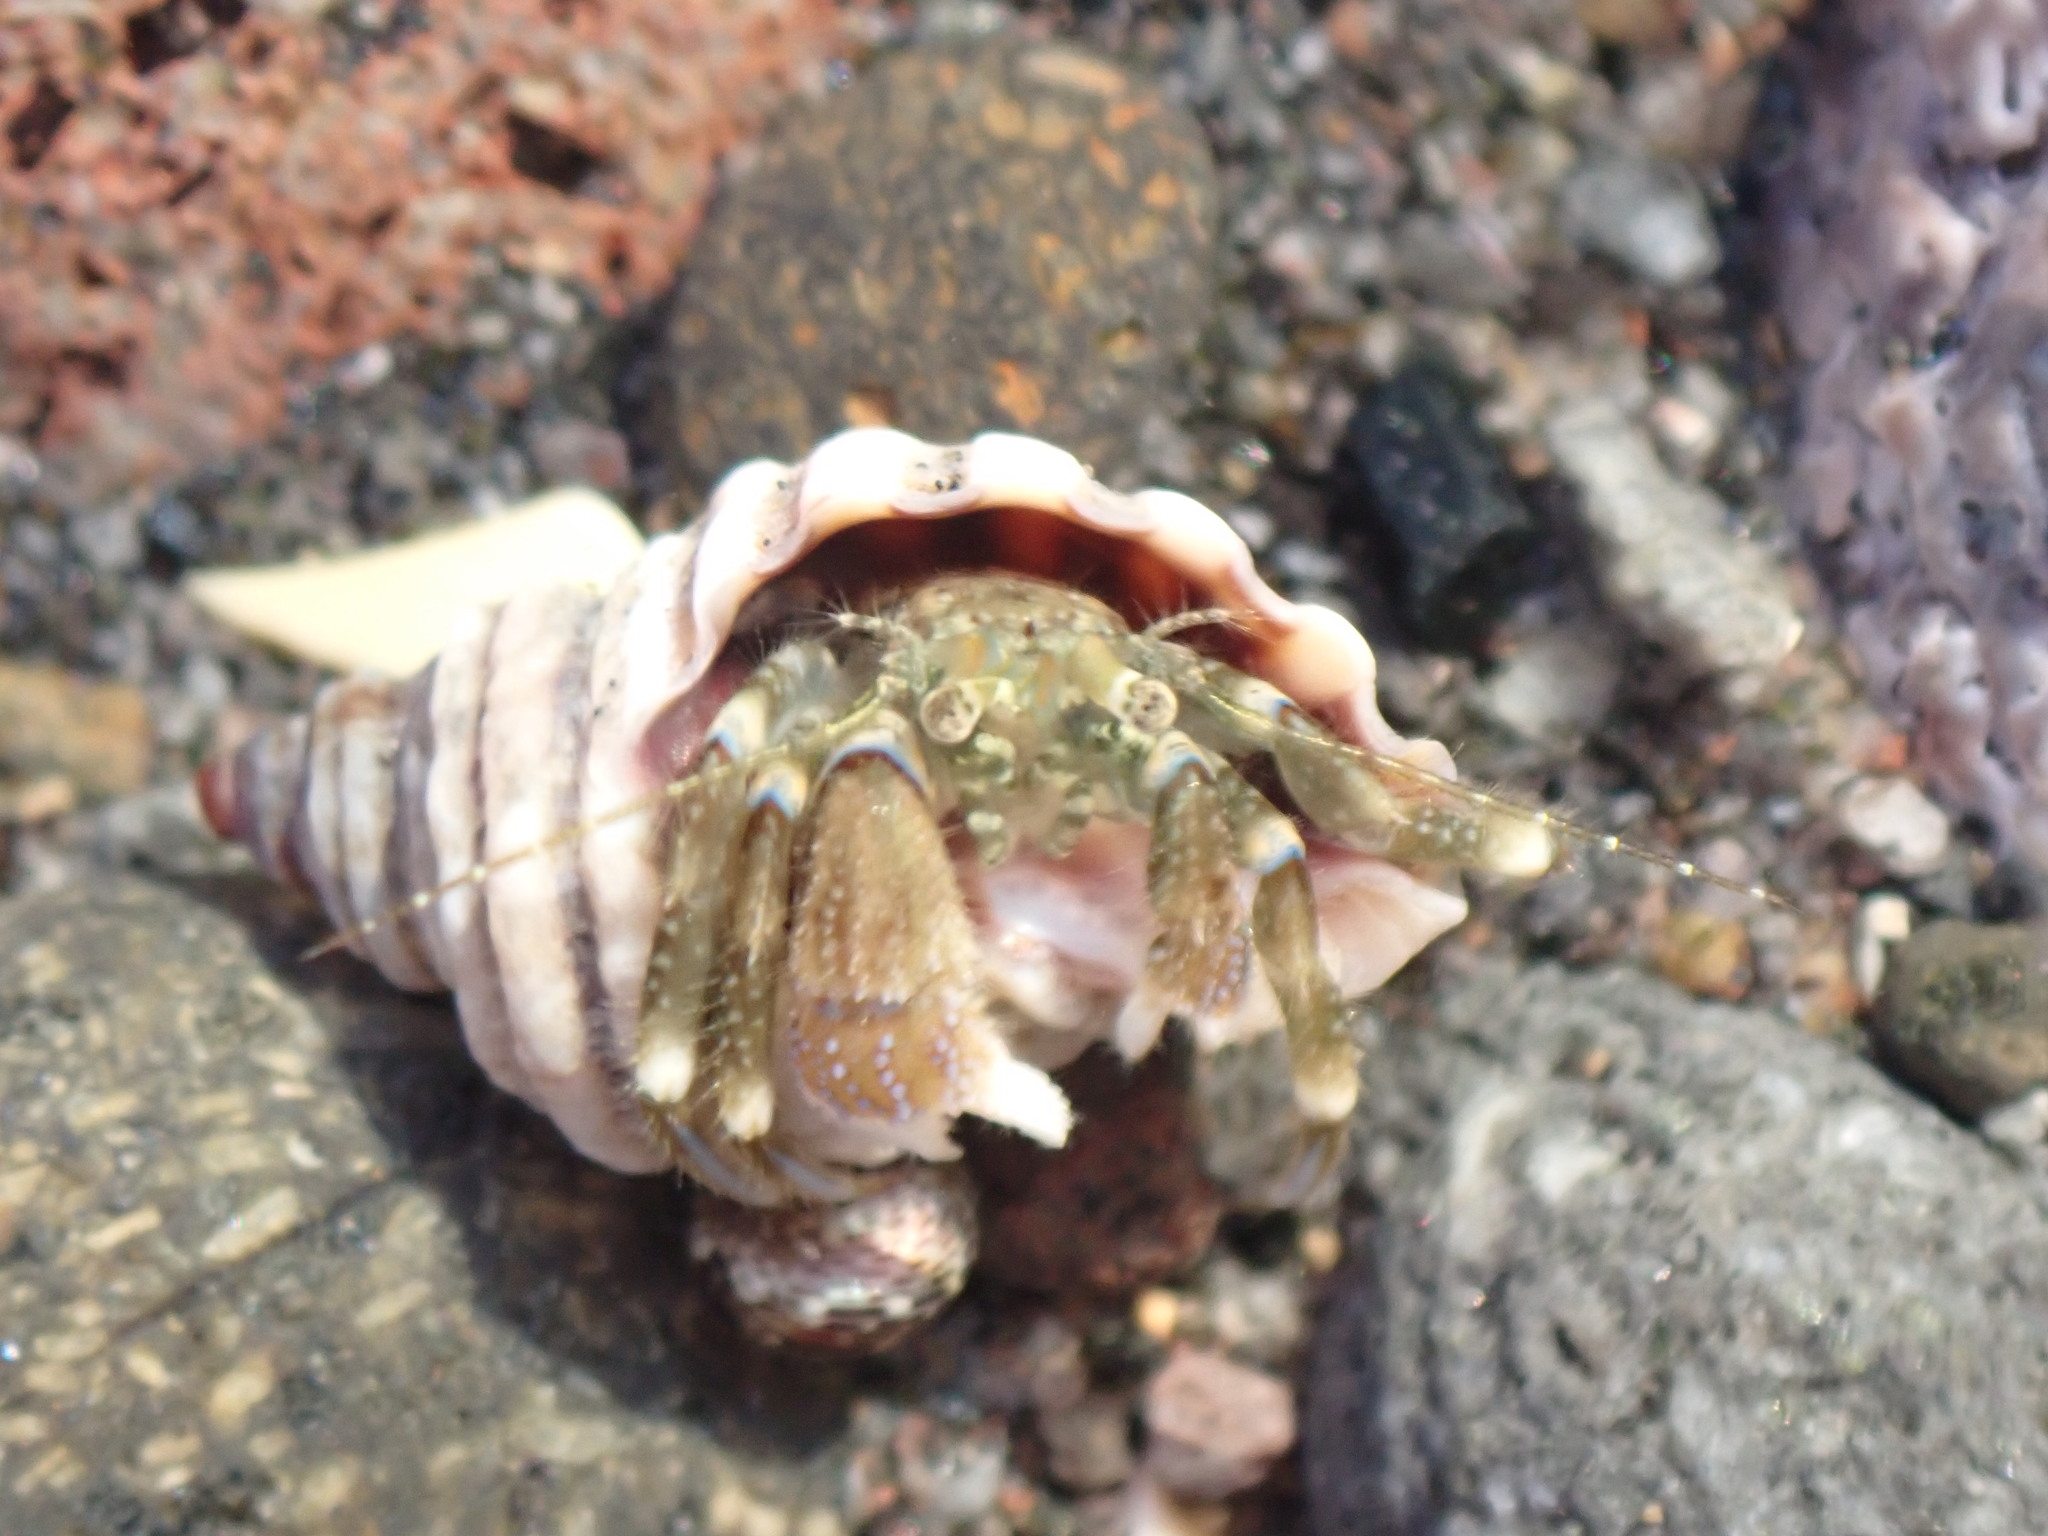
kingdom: Animalia
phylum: Arthropoda
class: Malacostraca
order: Decapoda
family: Paguridae
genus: Pagurus
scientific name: Pagurus novizealandiae
